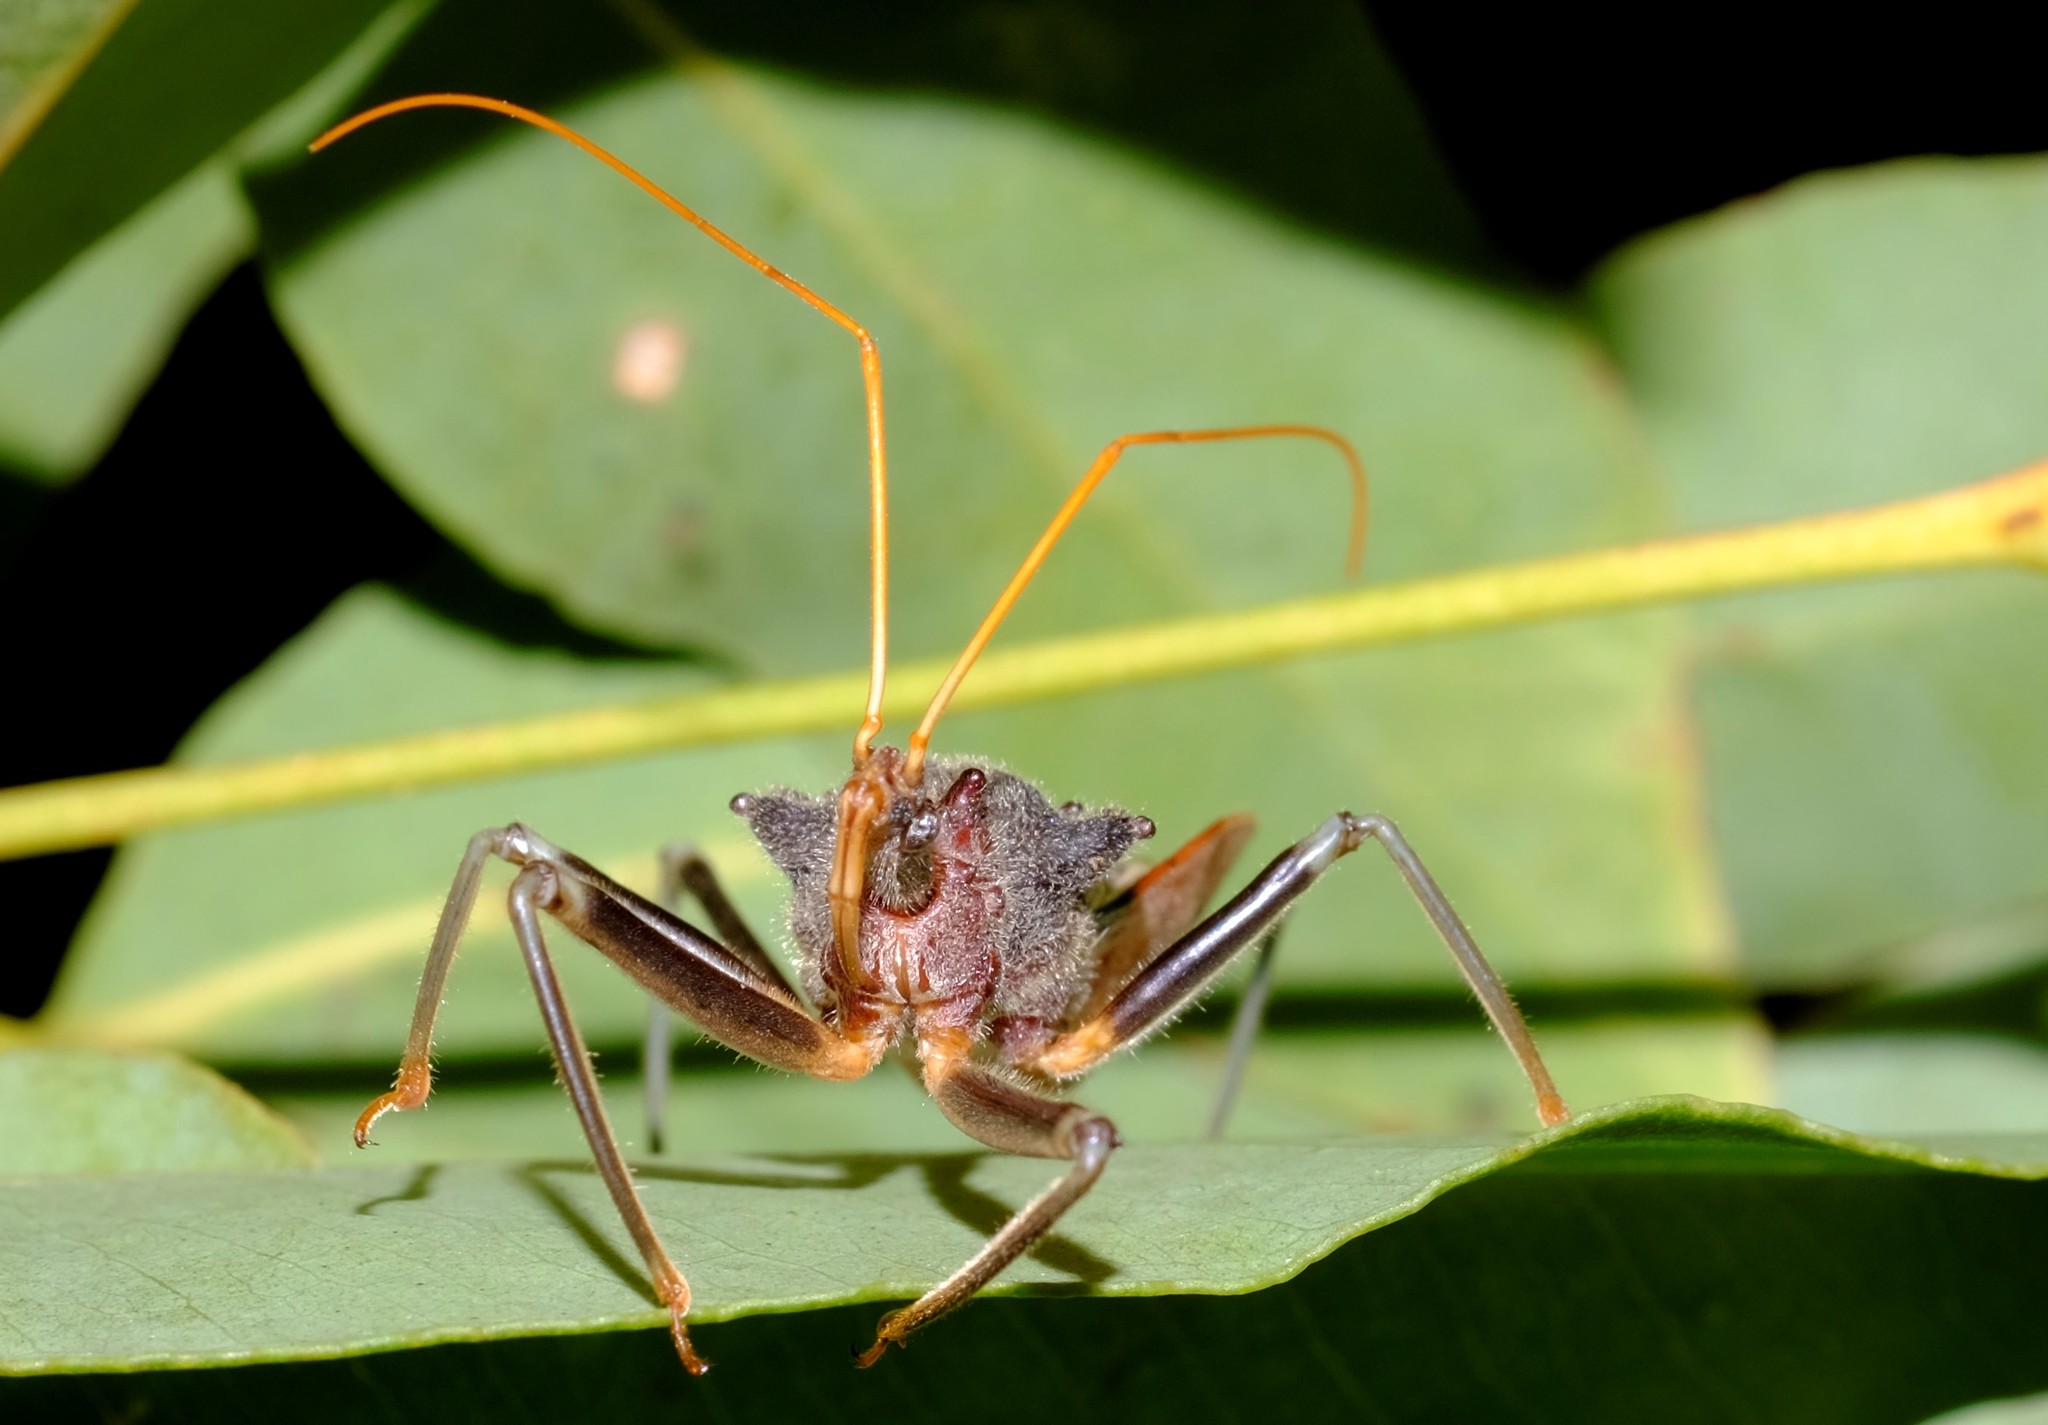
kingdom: Animalia
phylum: Arthropoda
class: Insecta
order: Hemiptera
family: Reduviidae
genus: Pristhesancus
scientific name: Pristhesancus plagipennis
